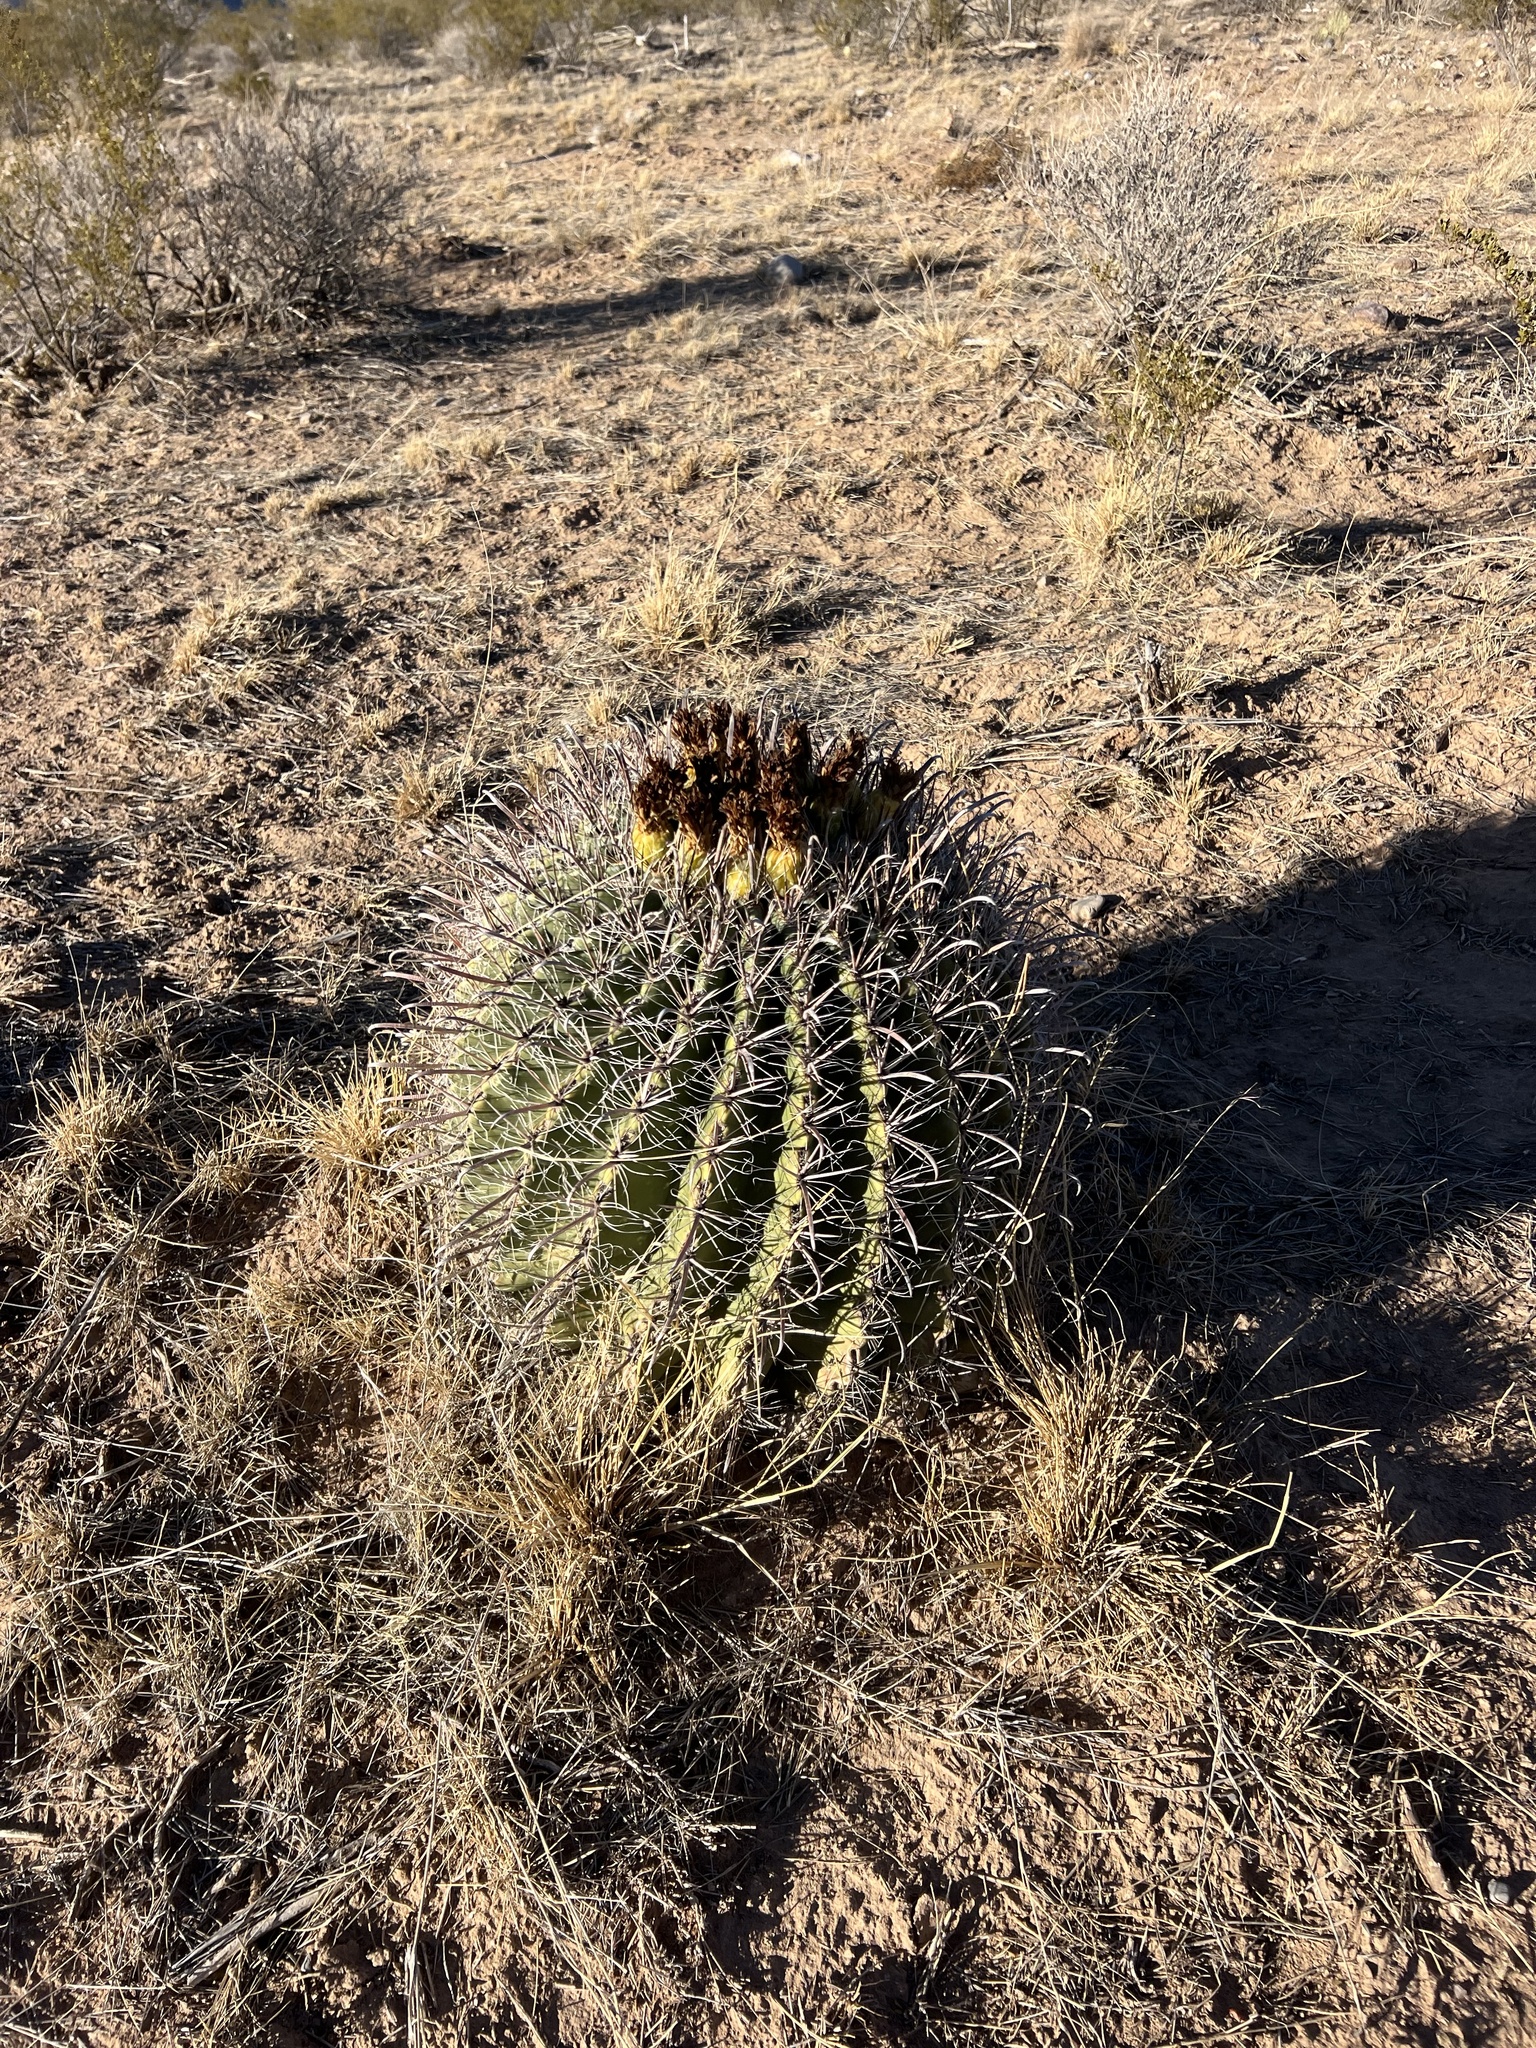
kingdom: Plantae
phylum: Tracheophyta
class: Magnoliopsida
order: Caryophyllales
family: Cactaceae
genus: Ferocactus
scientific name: Ferocactus wislizeni
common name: Candy barrel cactus
